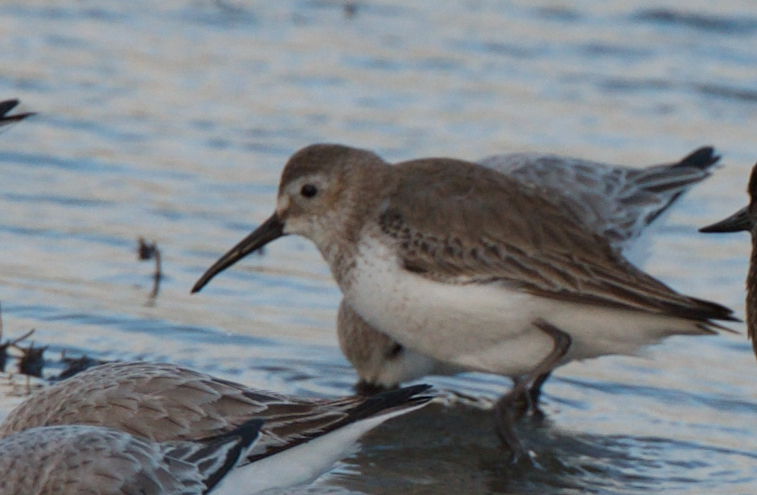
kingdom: Animalia
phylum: Chordata
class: Aves
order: Charadriiformes
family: Scolopacidae
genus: Calidris
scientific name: Calidris alpina
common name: Dunlin
